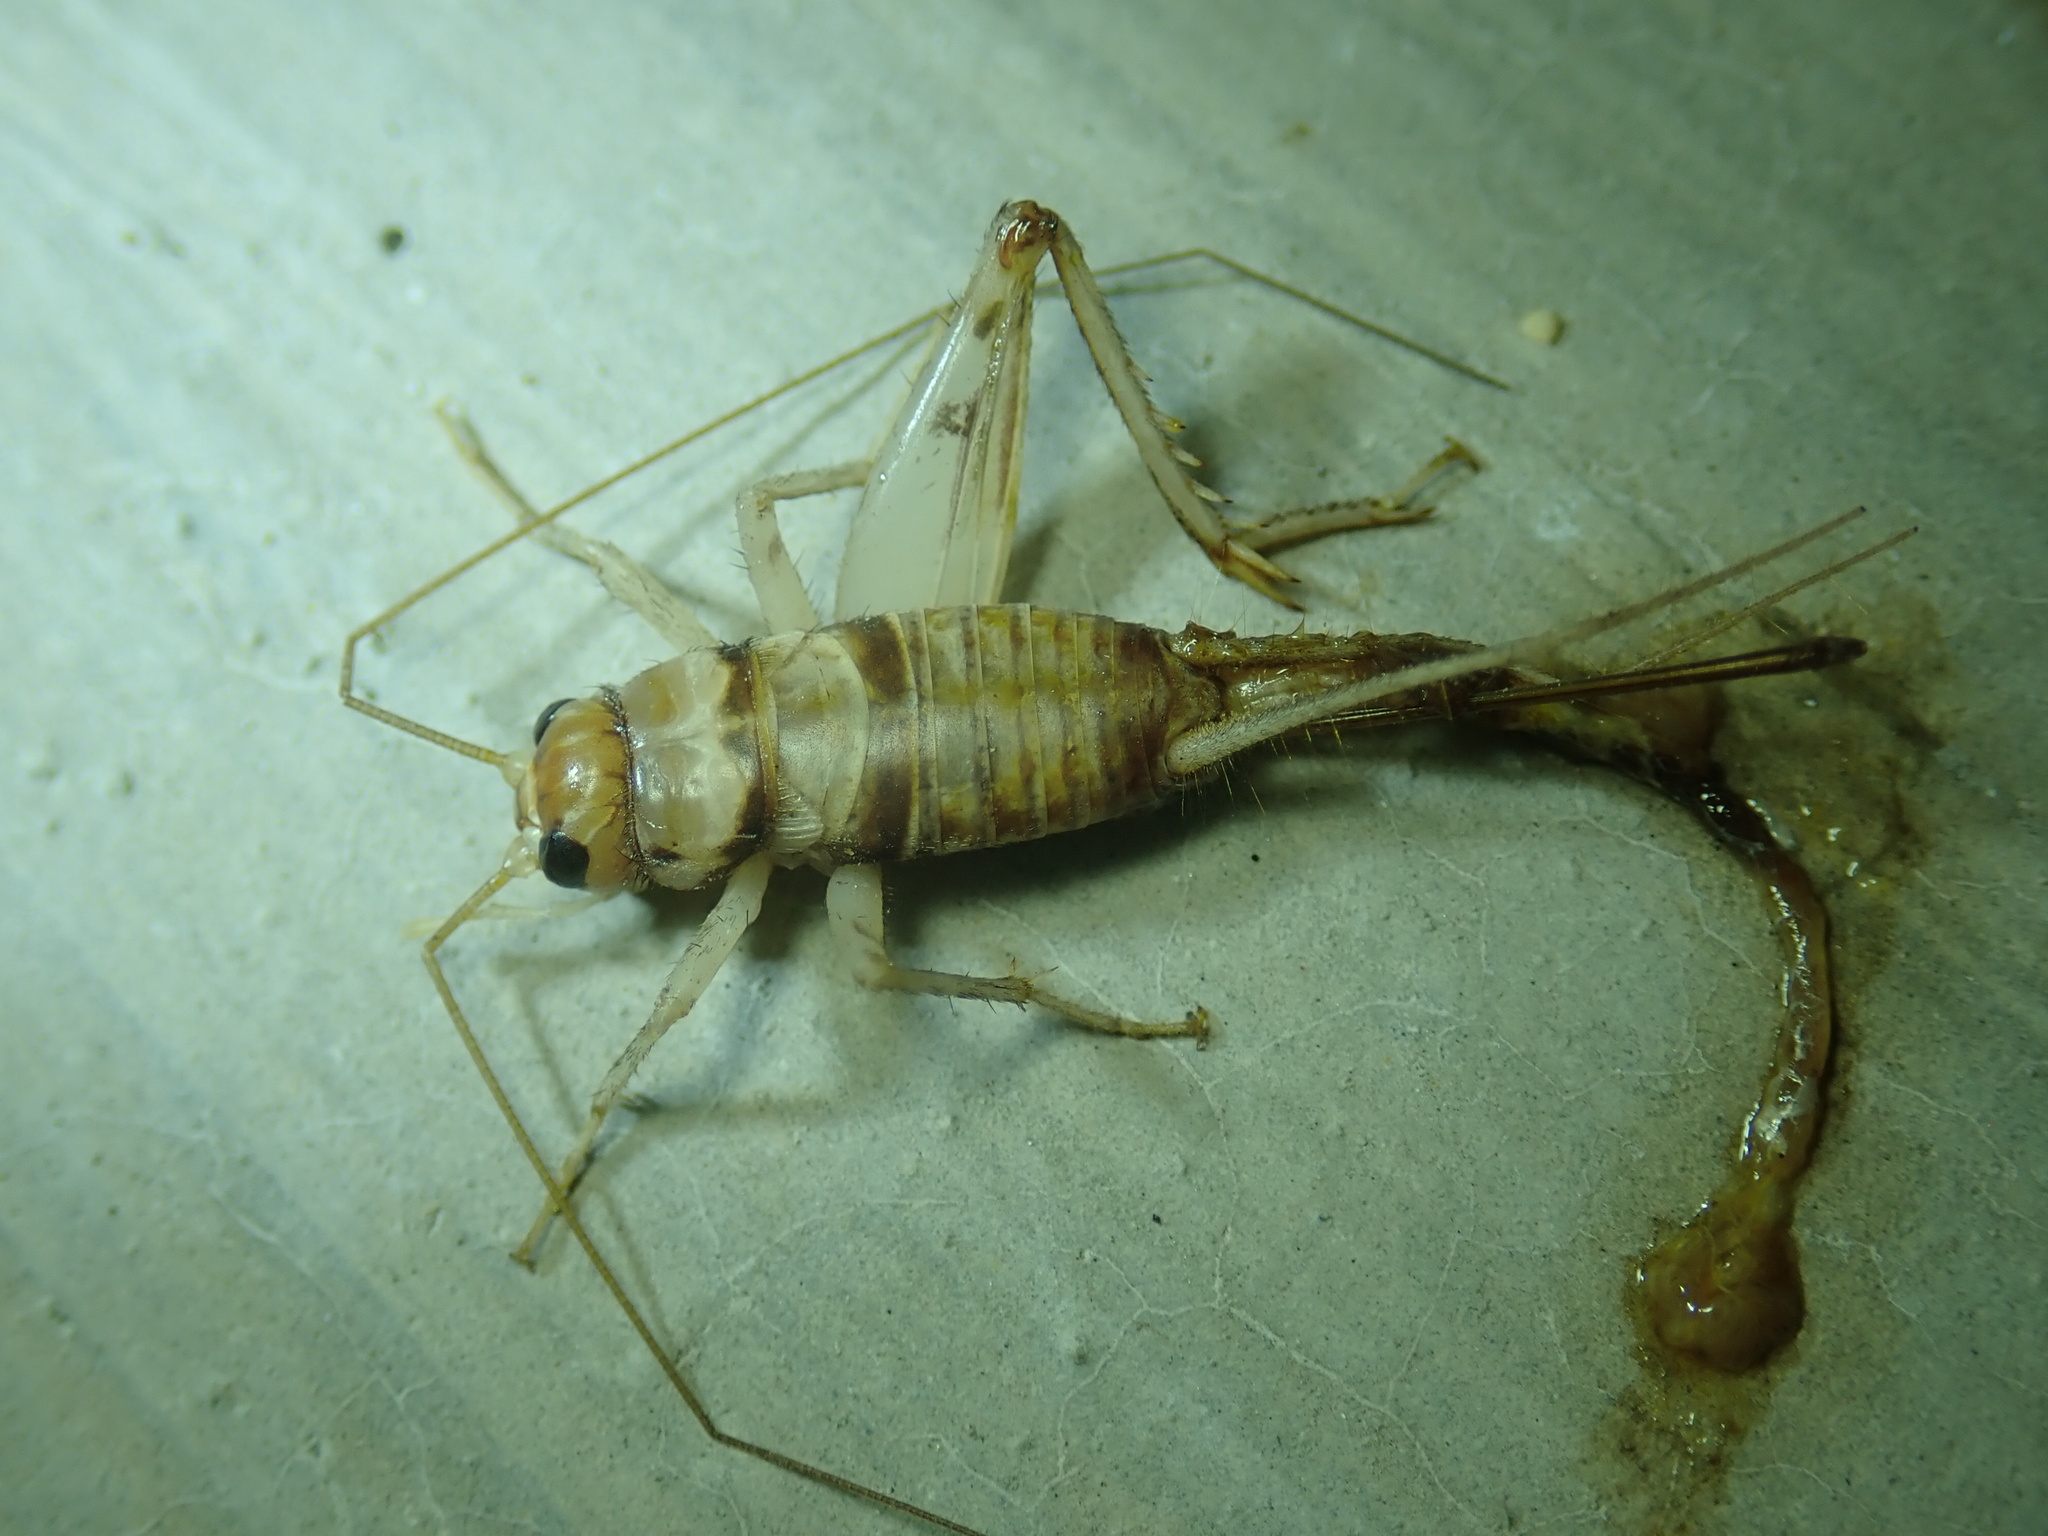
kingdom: Animalia
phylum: Arthropoda
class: Insecta
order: Orthoptera
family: Gryllidae
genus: Gryllodes
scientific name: Gryllodes sigillatus
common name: Tropical house cricket
